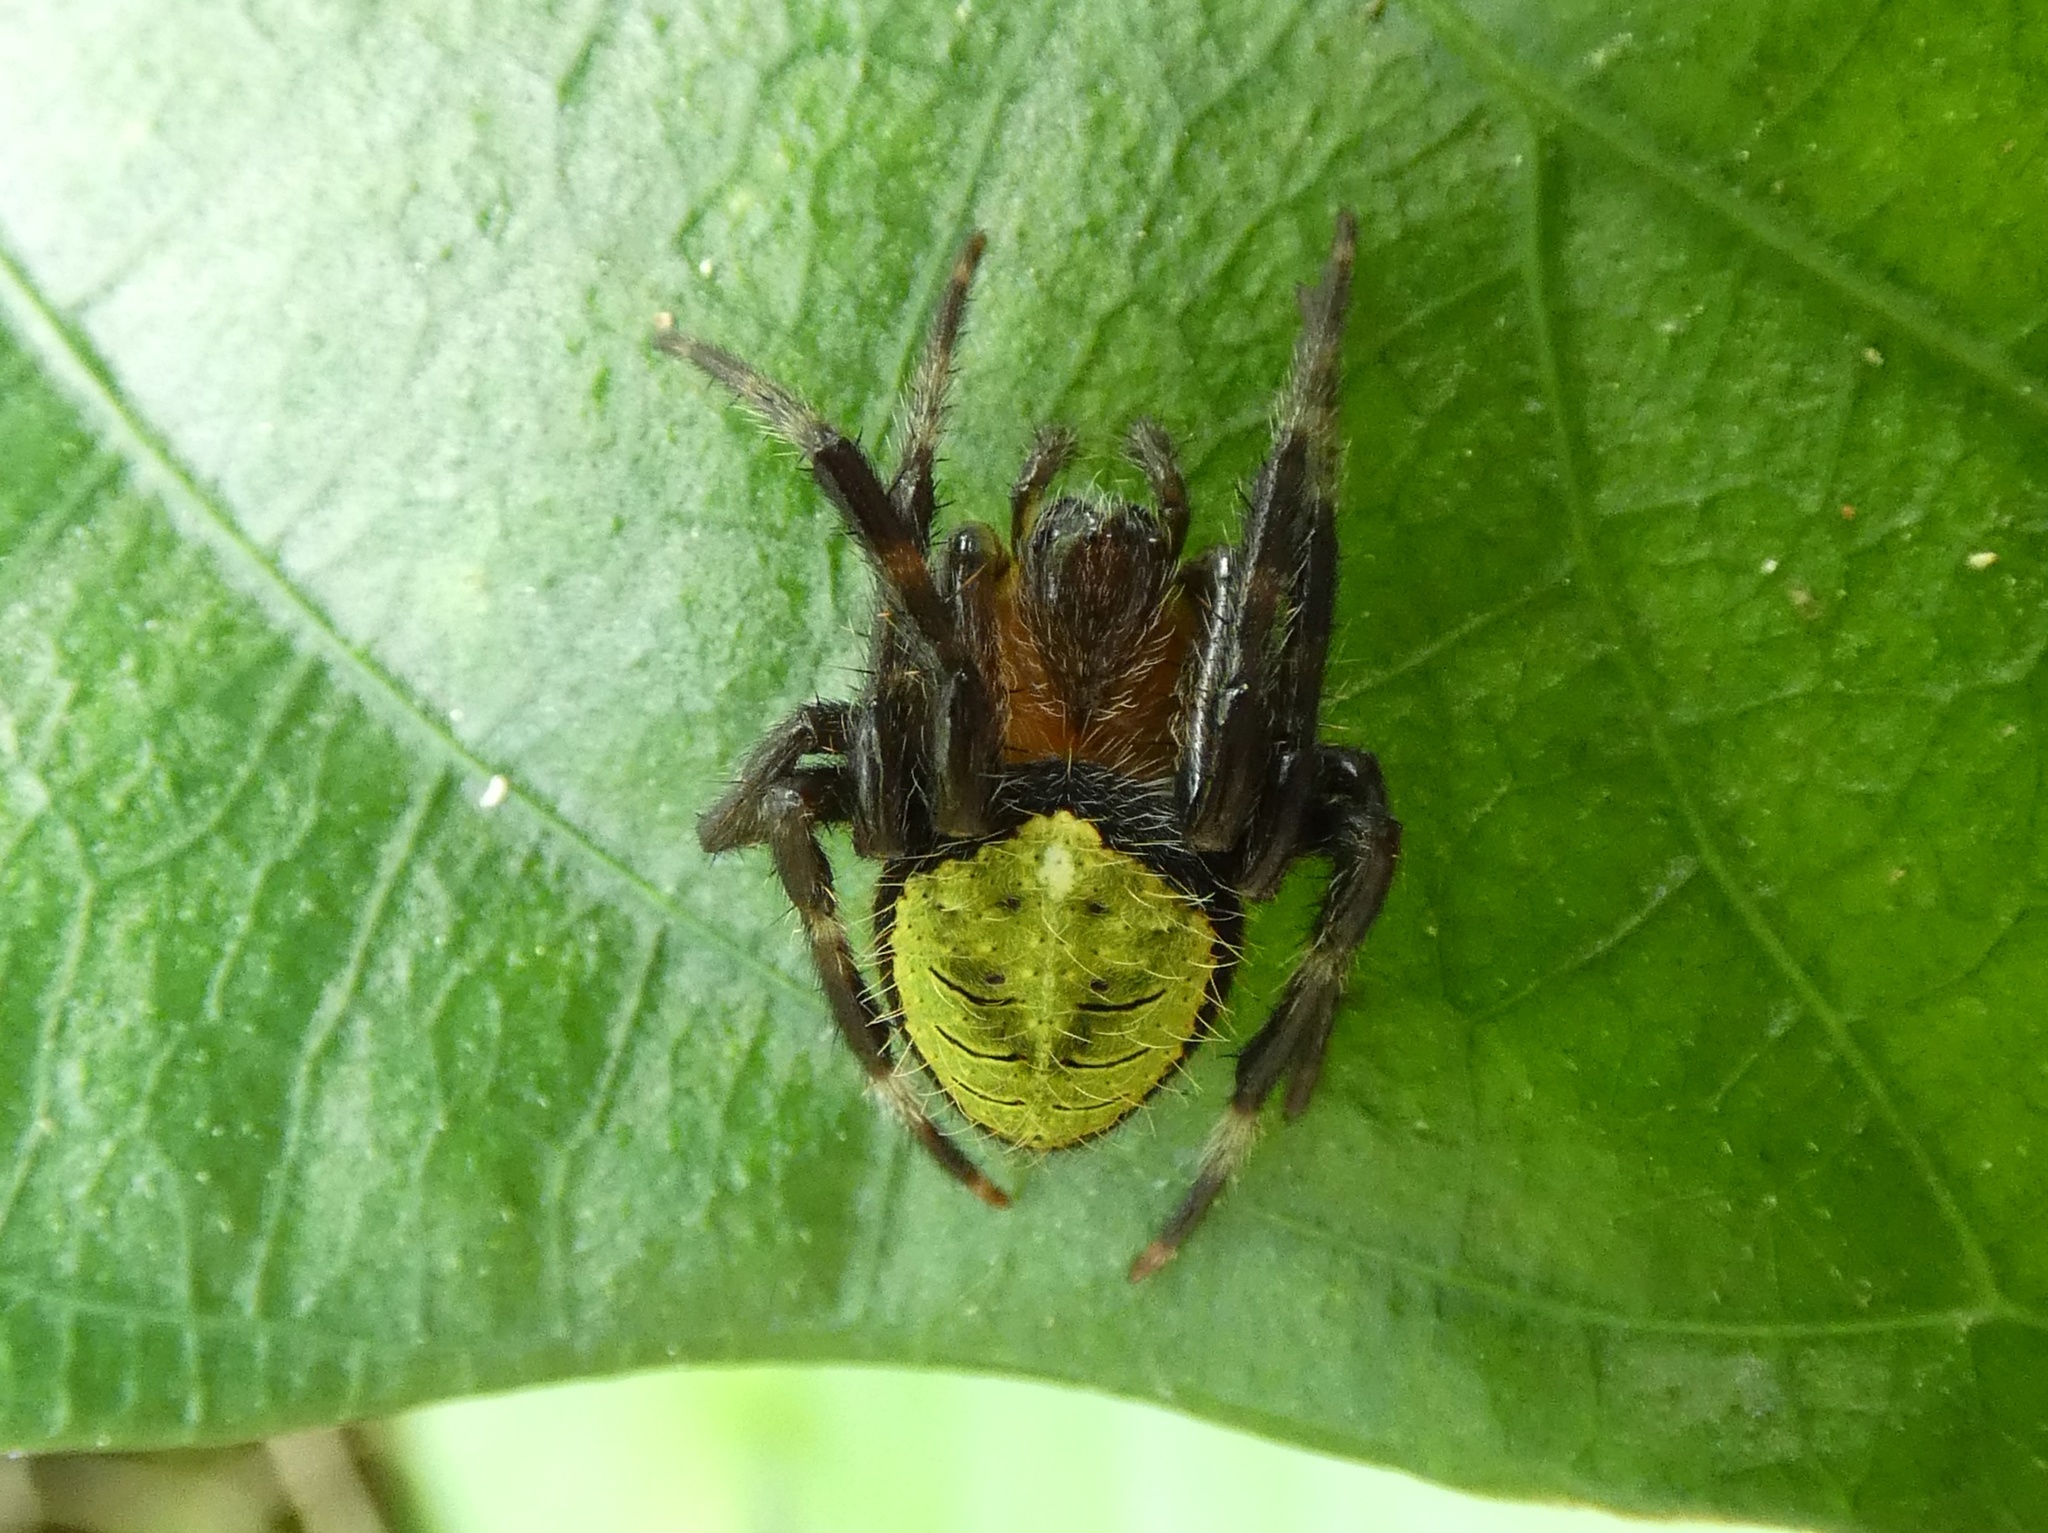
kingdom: Animalia
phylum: Arthropoda
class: Arachnida
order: Araneae
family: Araneidae
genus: Eriophora
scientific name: Eriophora ravilla
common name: Orb weavers
